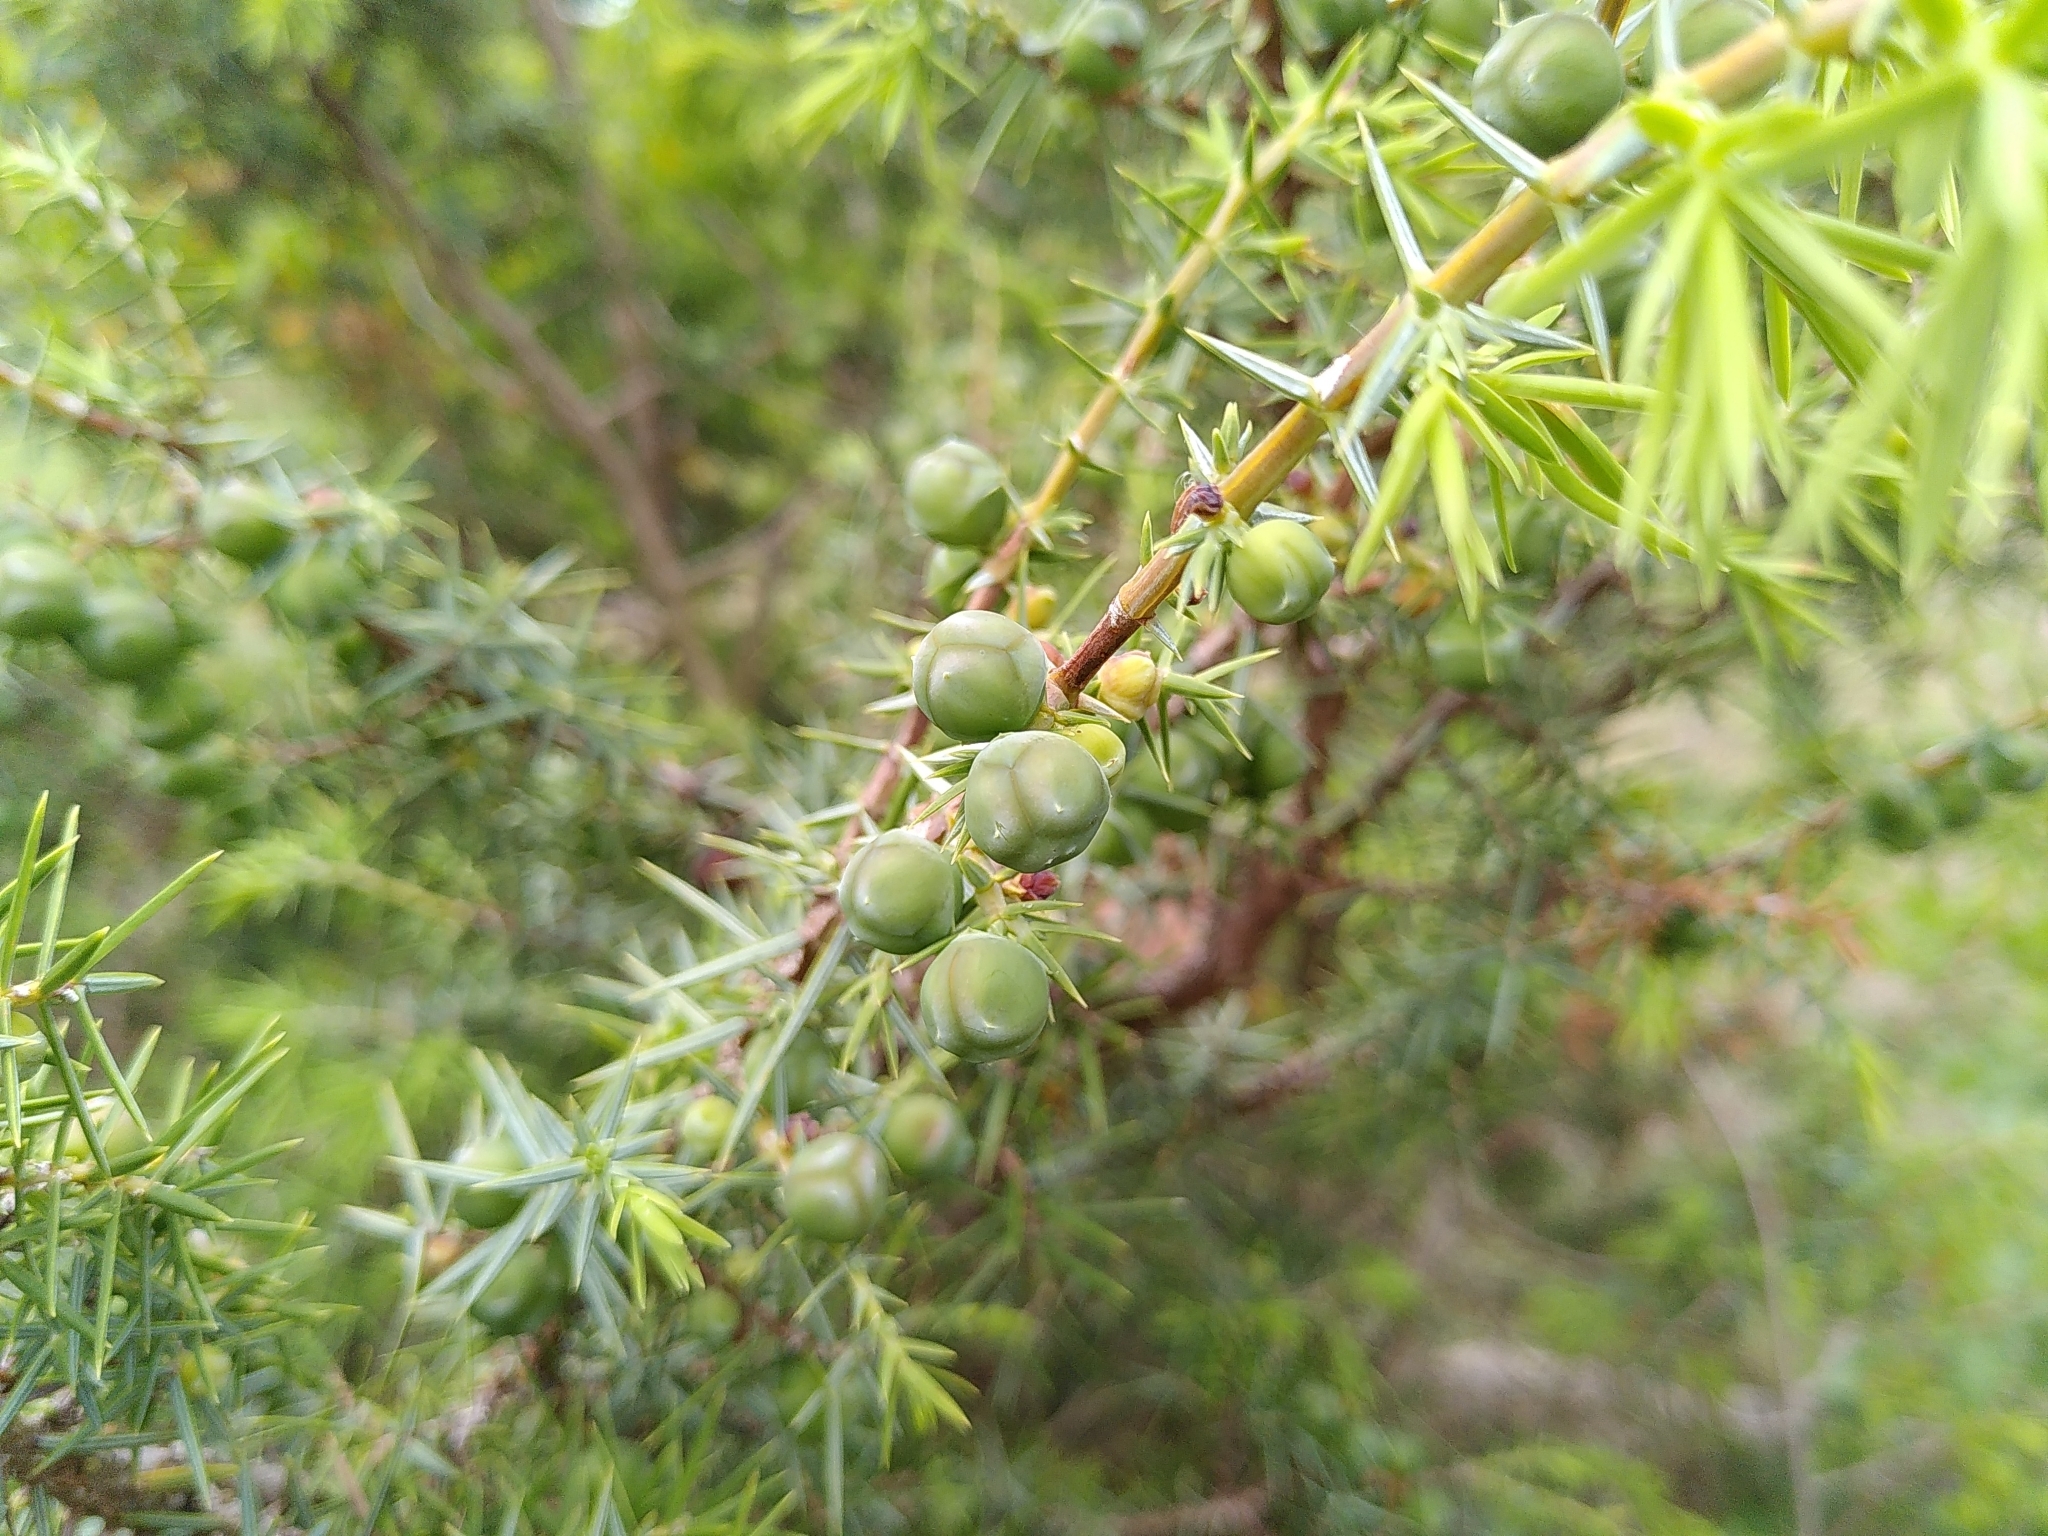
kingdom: Plantae
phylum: Tracheophyta
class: Pinopsida
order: Pinales
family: Cupressaceae
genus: Juniperus
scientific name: Juniperus oxycedrus
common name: Prickly juniper
